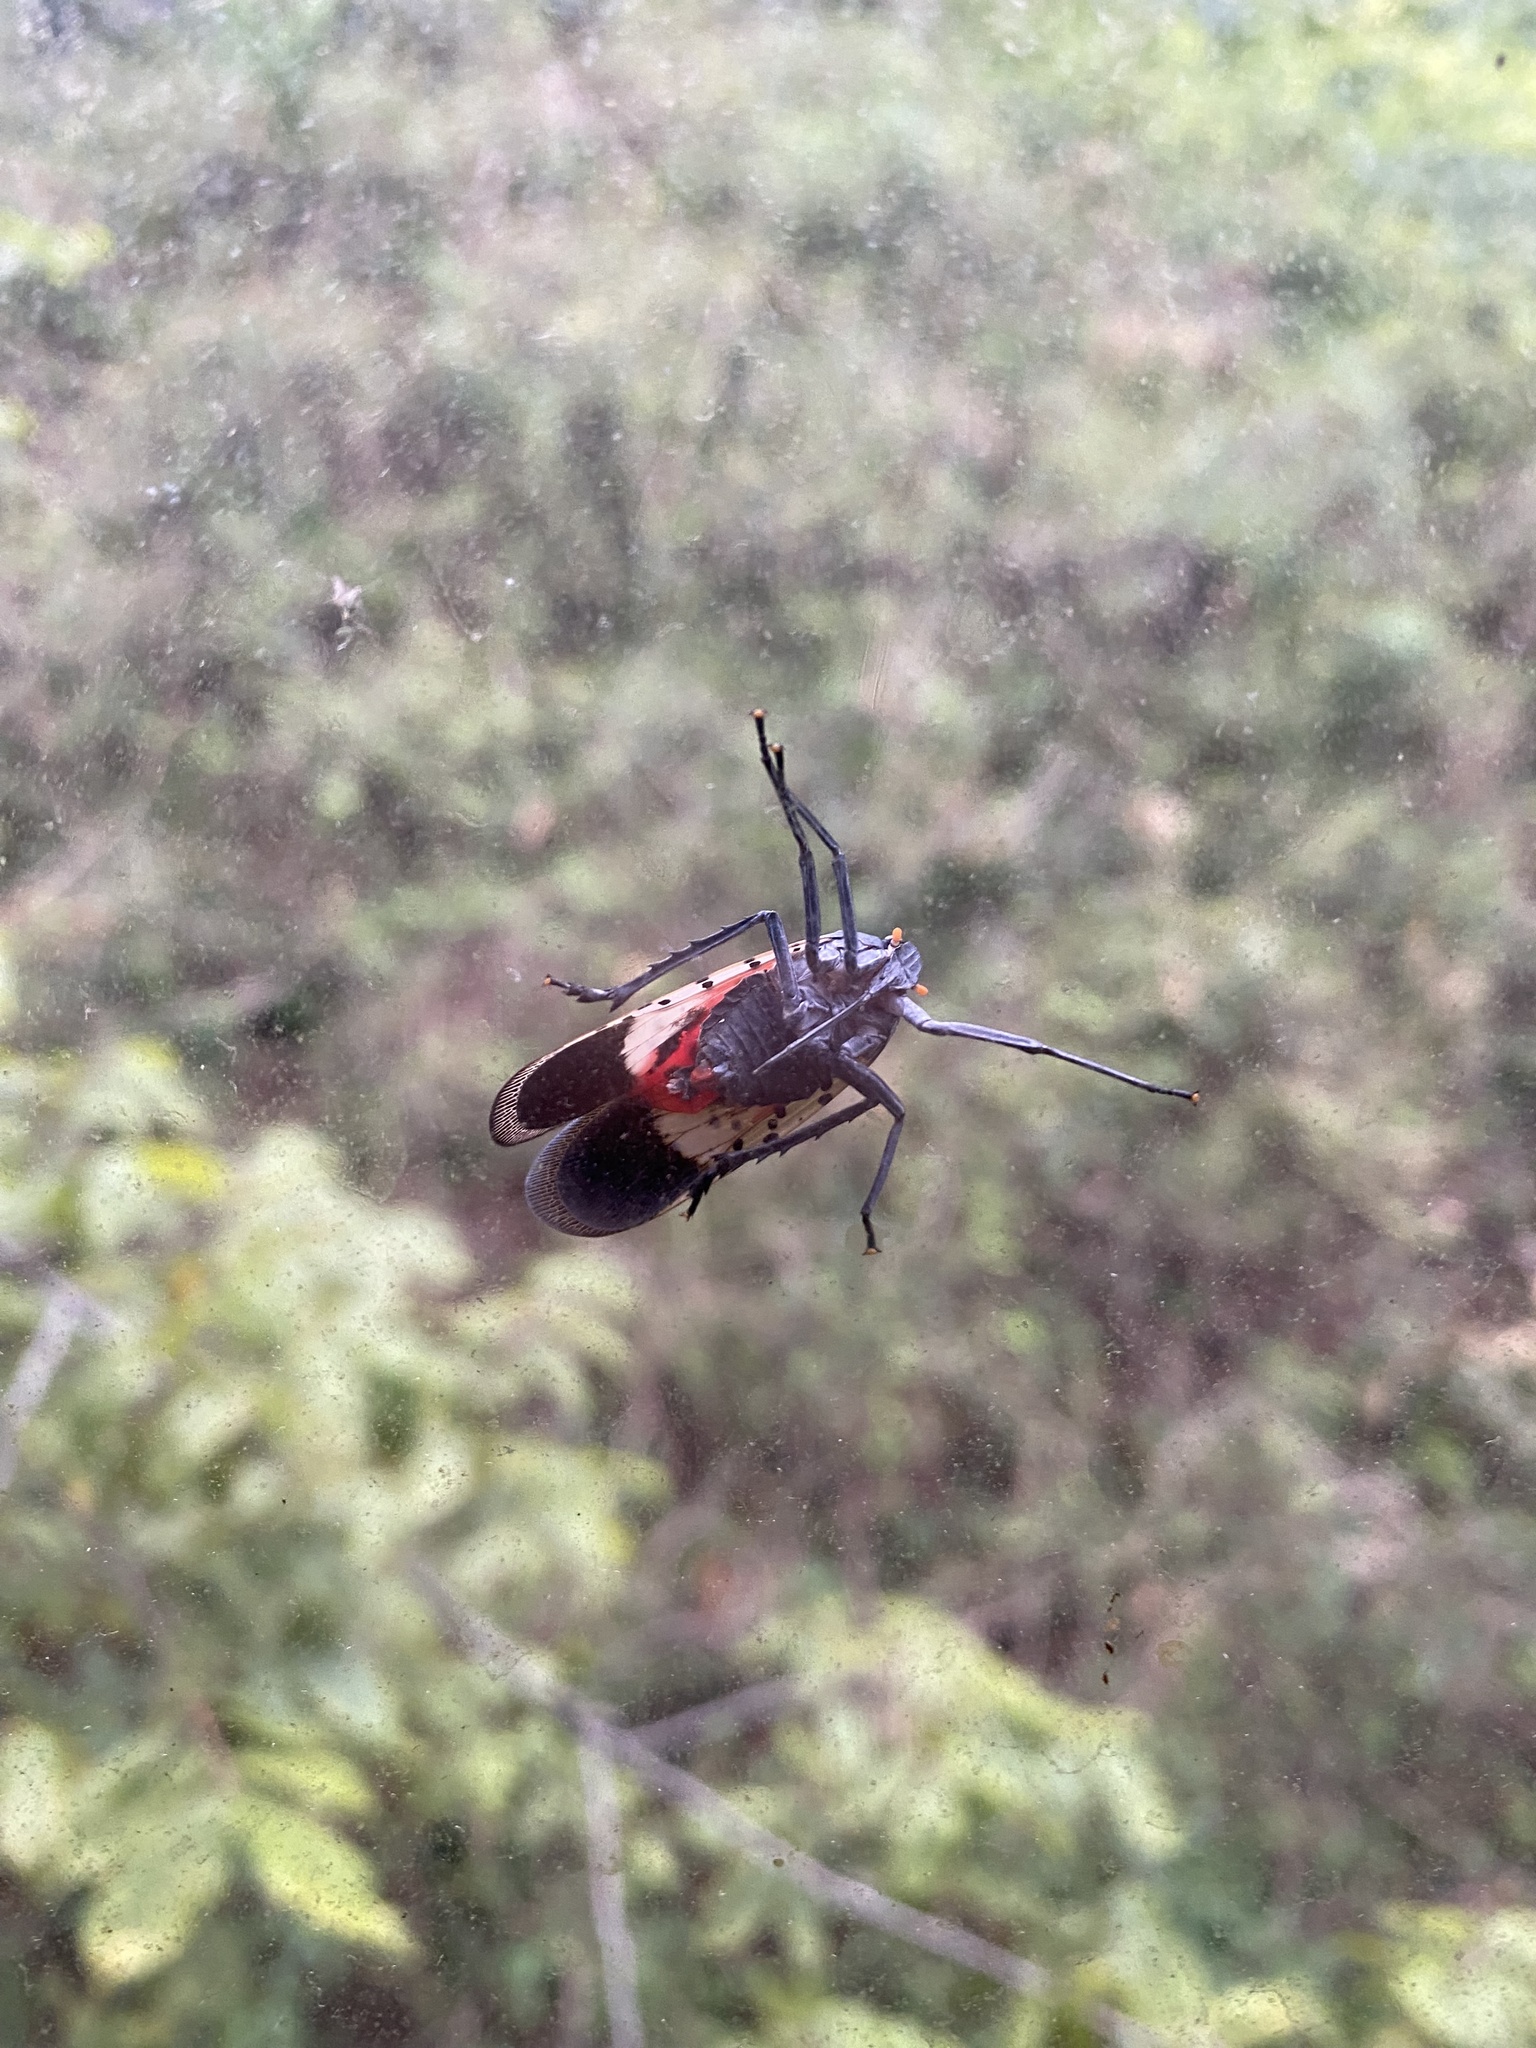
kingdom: Animalia
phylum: Arthropoda
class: Insecta
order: Hemiptera
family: Fulgoridae
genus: Lycorma
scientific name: Lycorma delicatula
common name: Spotted lanternfly
